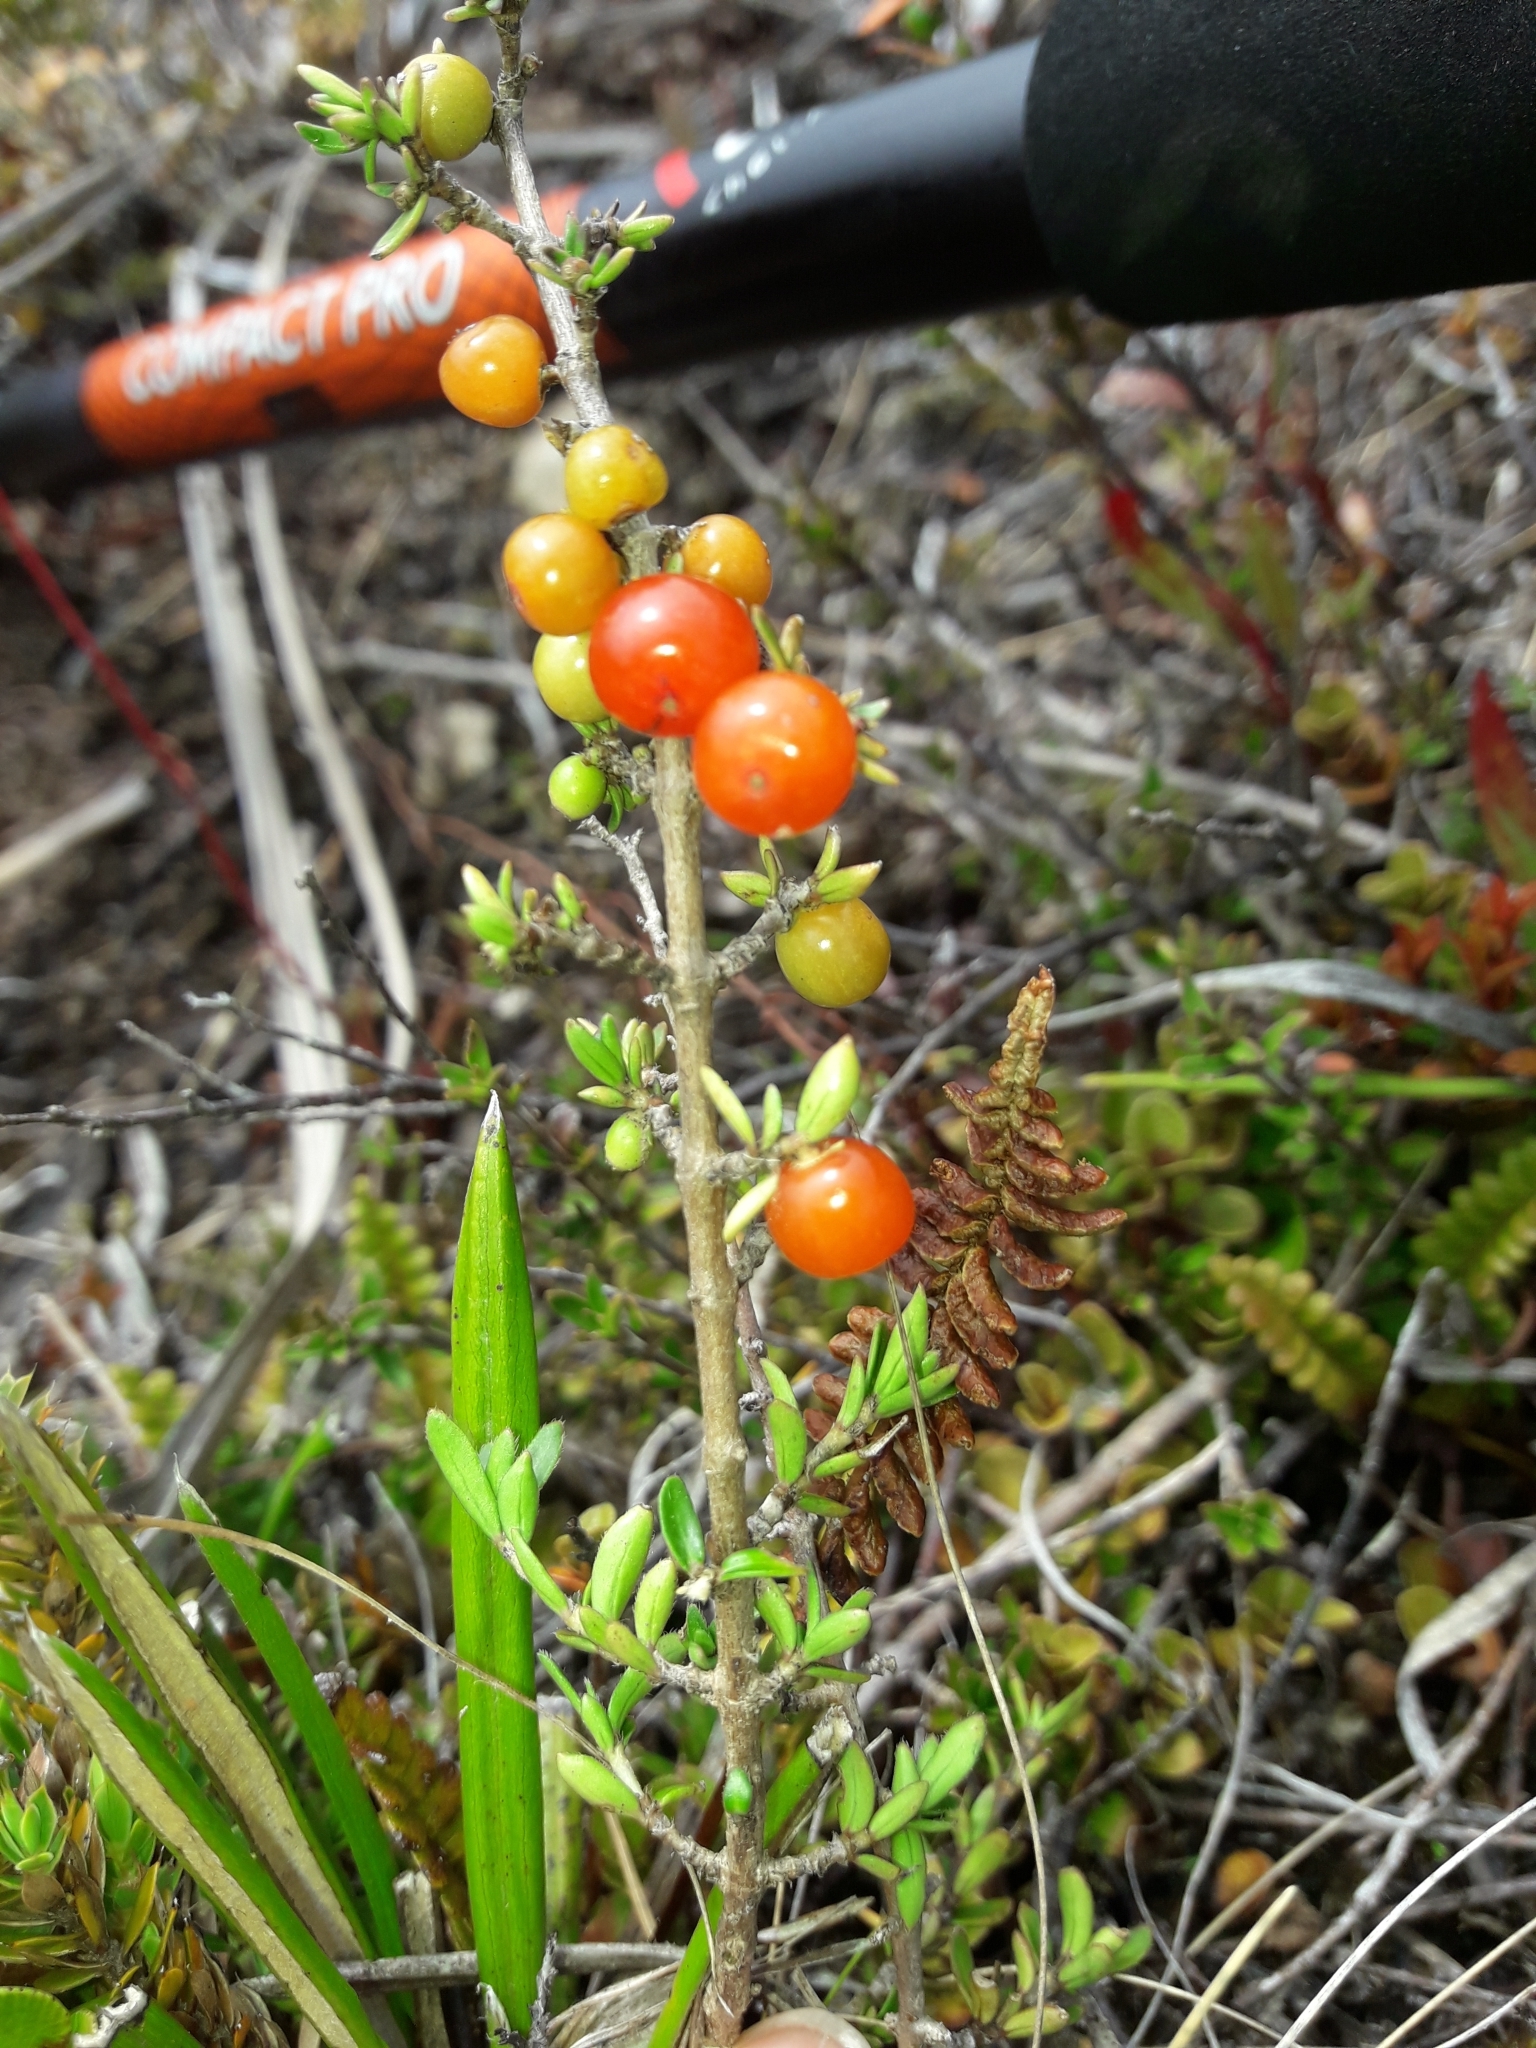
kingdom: Plantae
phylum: Tracheophyta
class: Magnoliopsida
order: Gentianales
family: Rubiaceae
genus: Coprosma
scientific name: Coprosma cheesemanii
